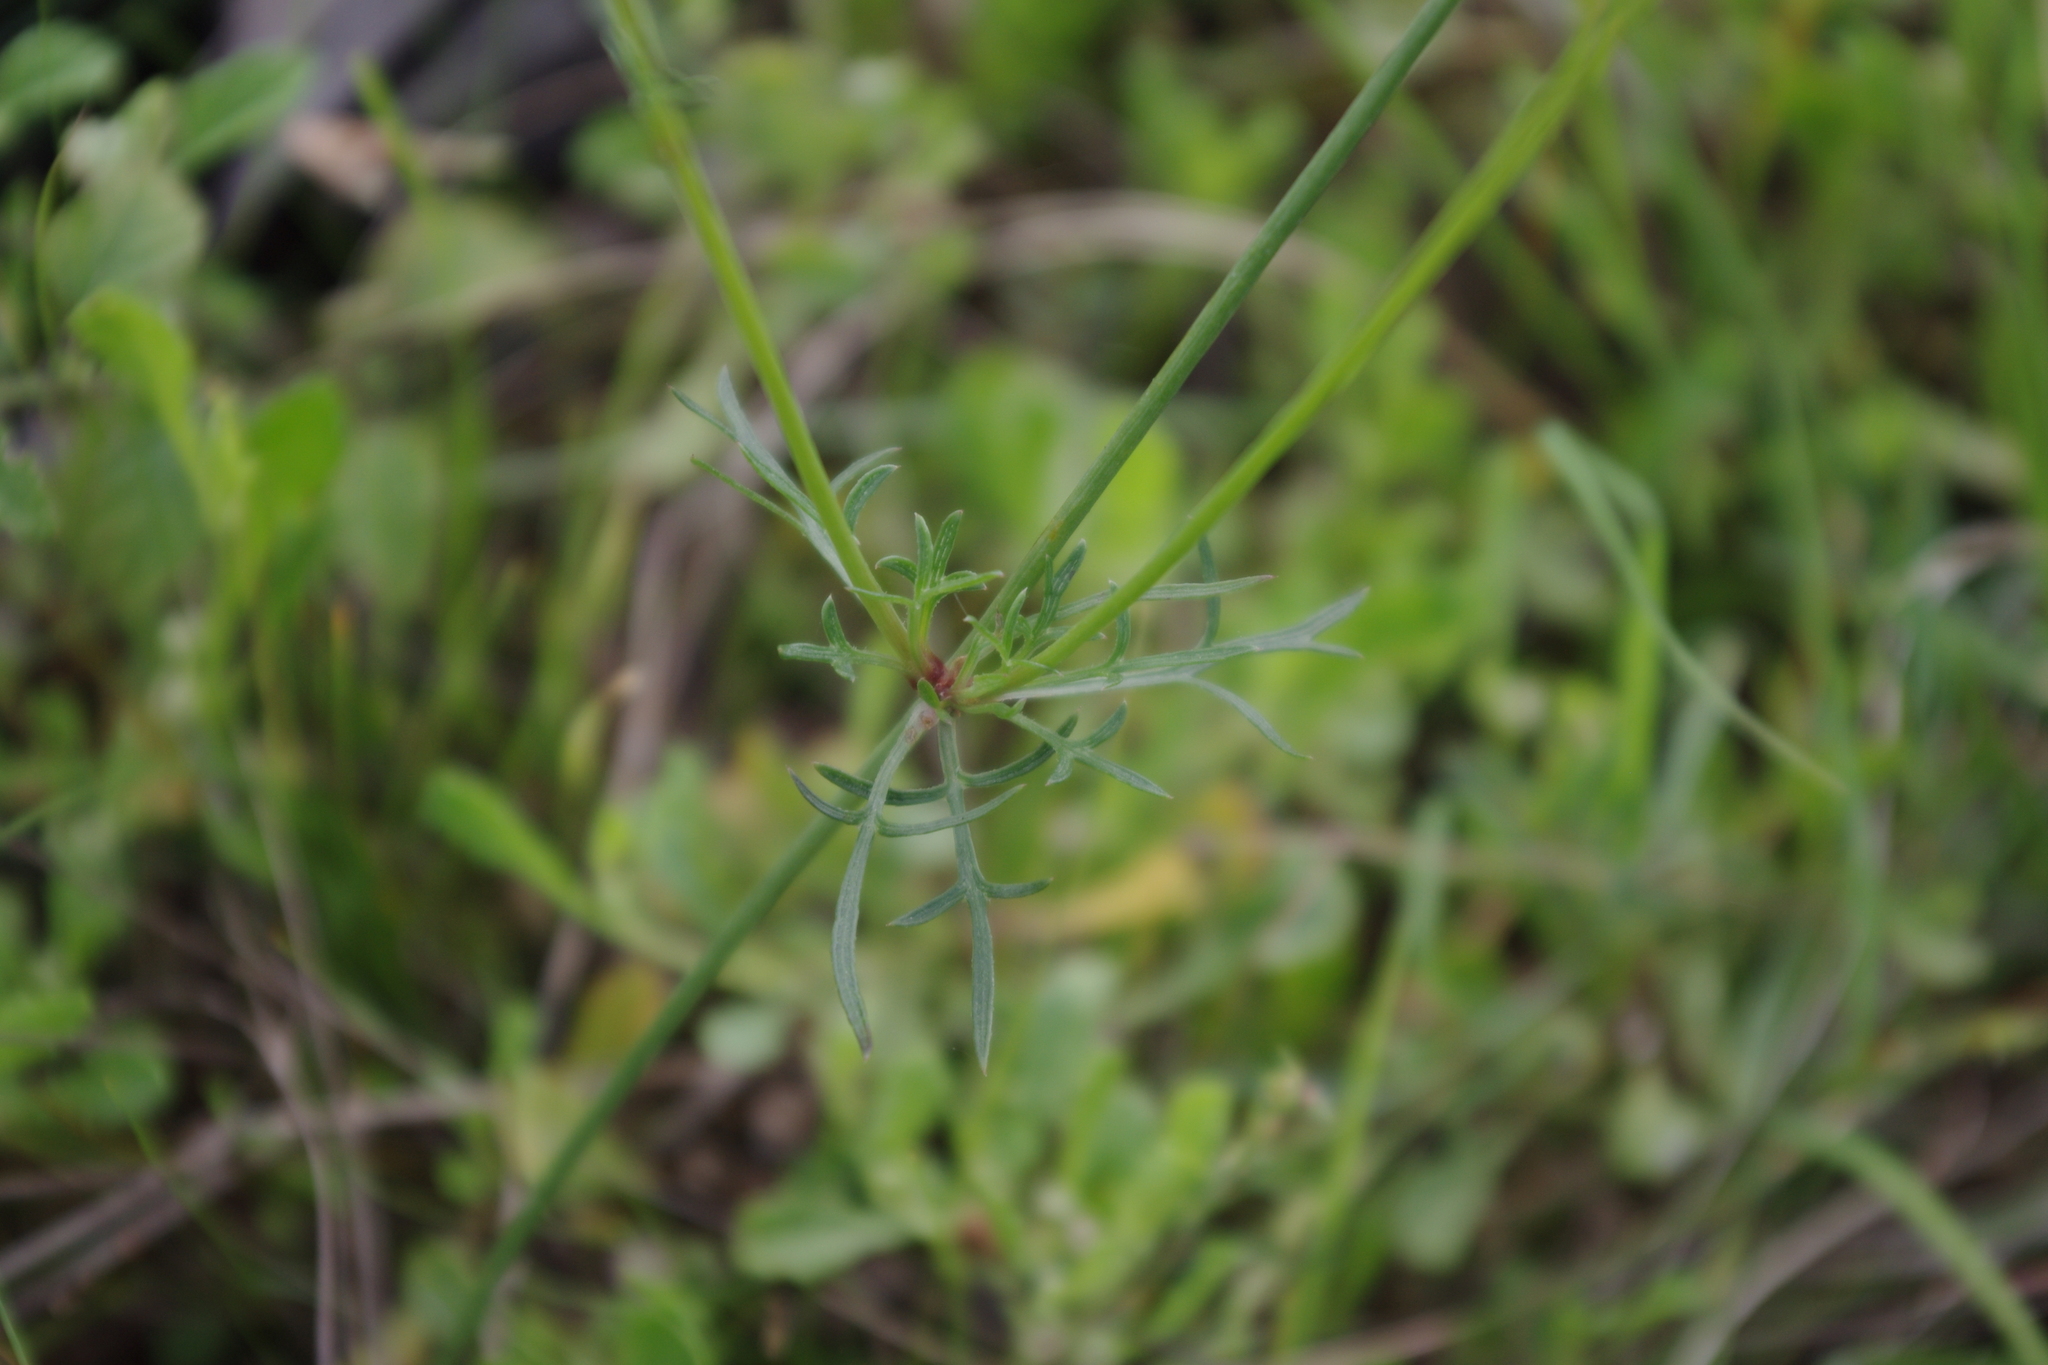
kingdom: Plantae
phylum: Tracheophyta
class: Magnoliopsida
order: Asterales
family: Asteraceae
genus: Glossocardia
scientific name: Glossocardia bidens
